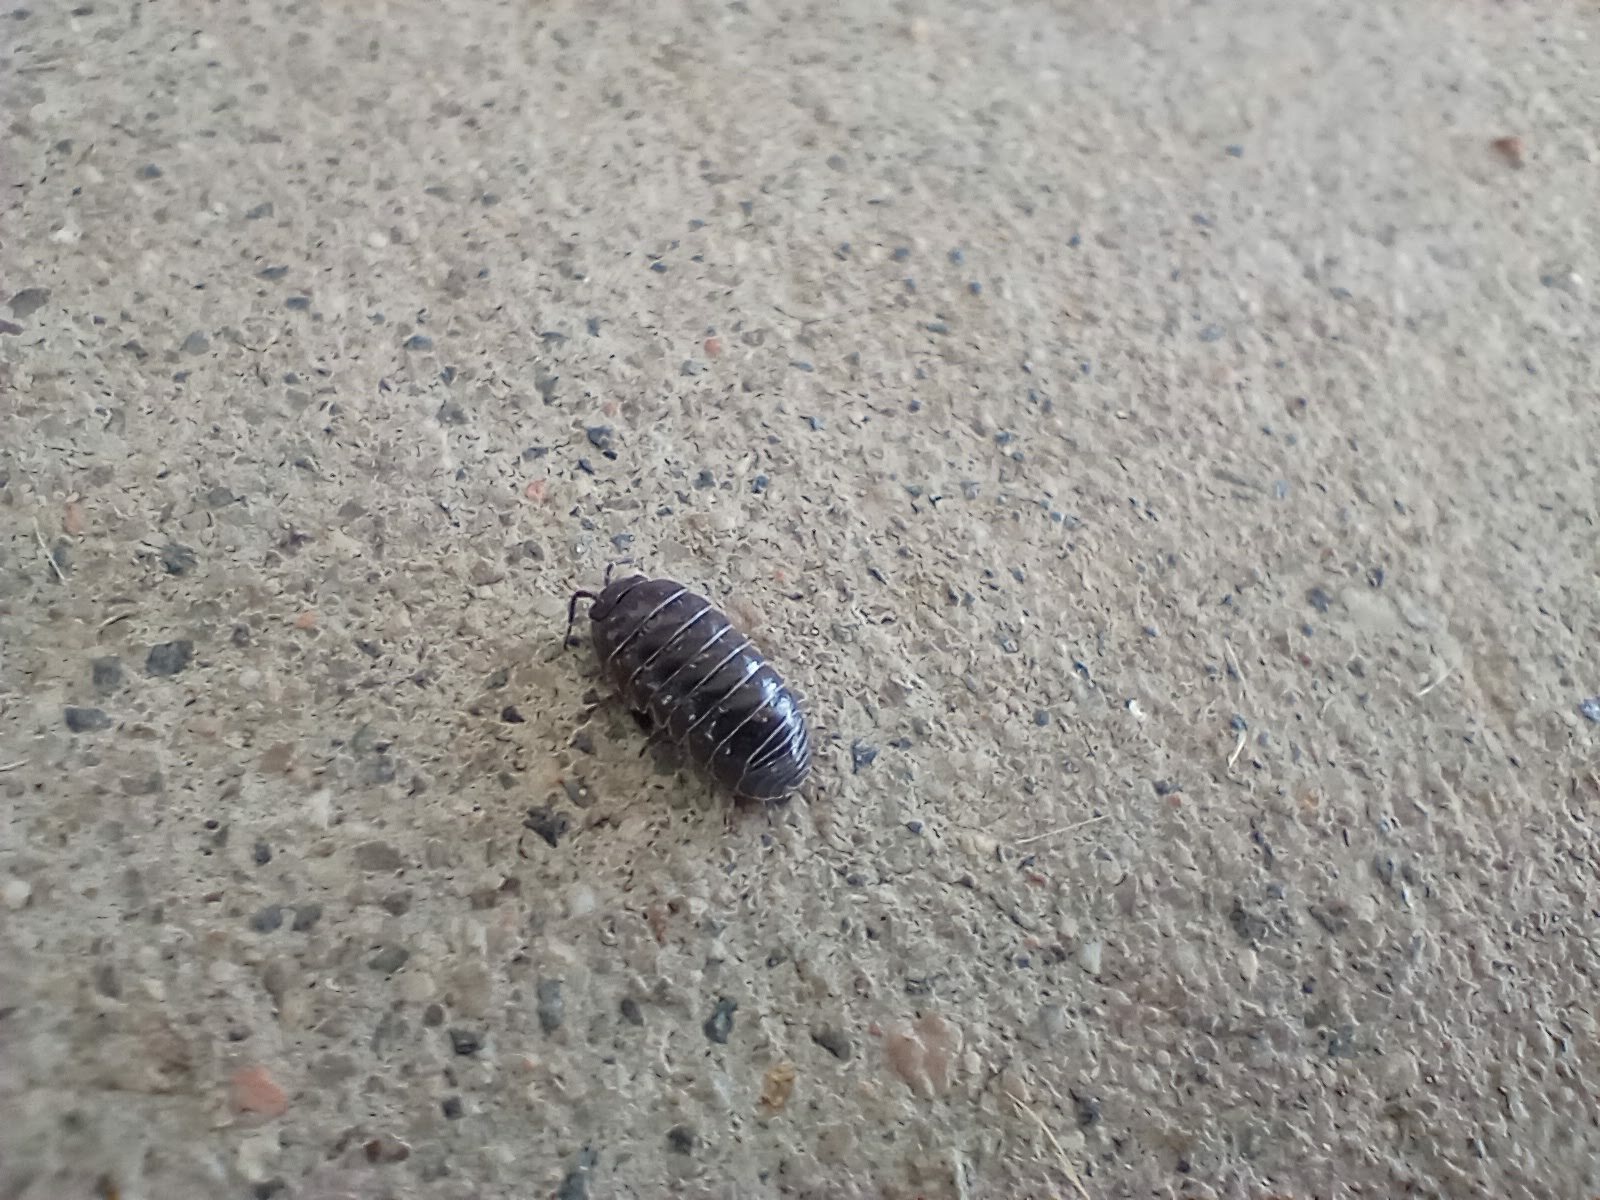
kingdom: Animalia
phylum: Arthropoda
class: Malacostraca
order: Isopoda
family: Armadillidiidae
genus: Armadillidium
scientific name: Armadillidium vulgare
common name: Common pill woodlouse
